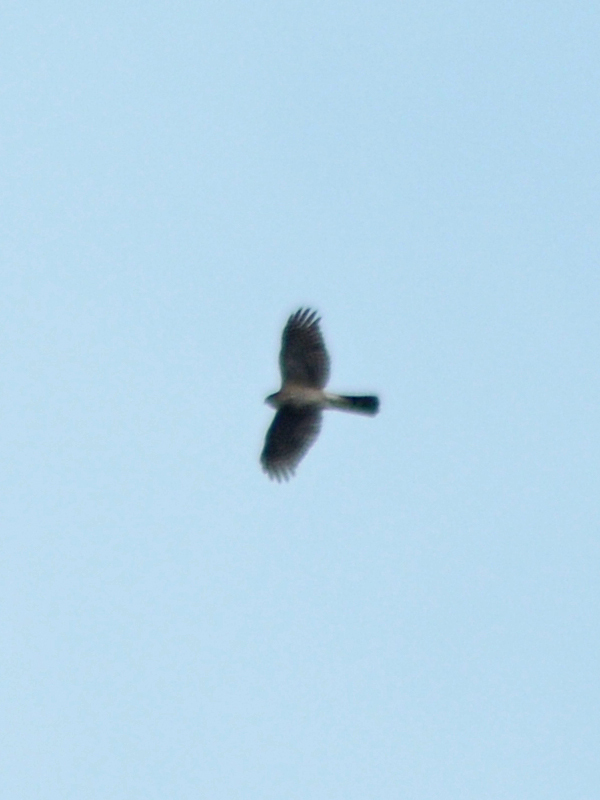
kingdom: Animalia
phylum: Chordata
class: Aves
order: Accipitriformes
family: Accipitridae
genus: Accipiter
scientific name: Accipiter striatus
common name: Sharp-shinned hawk
